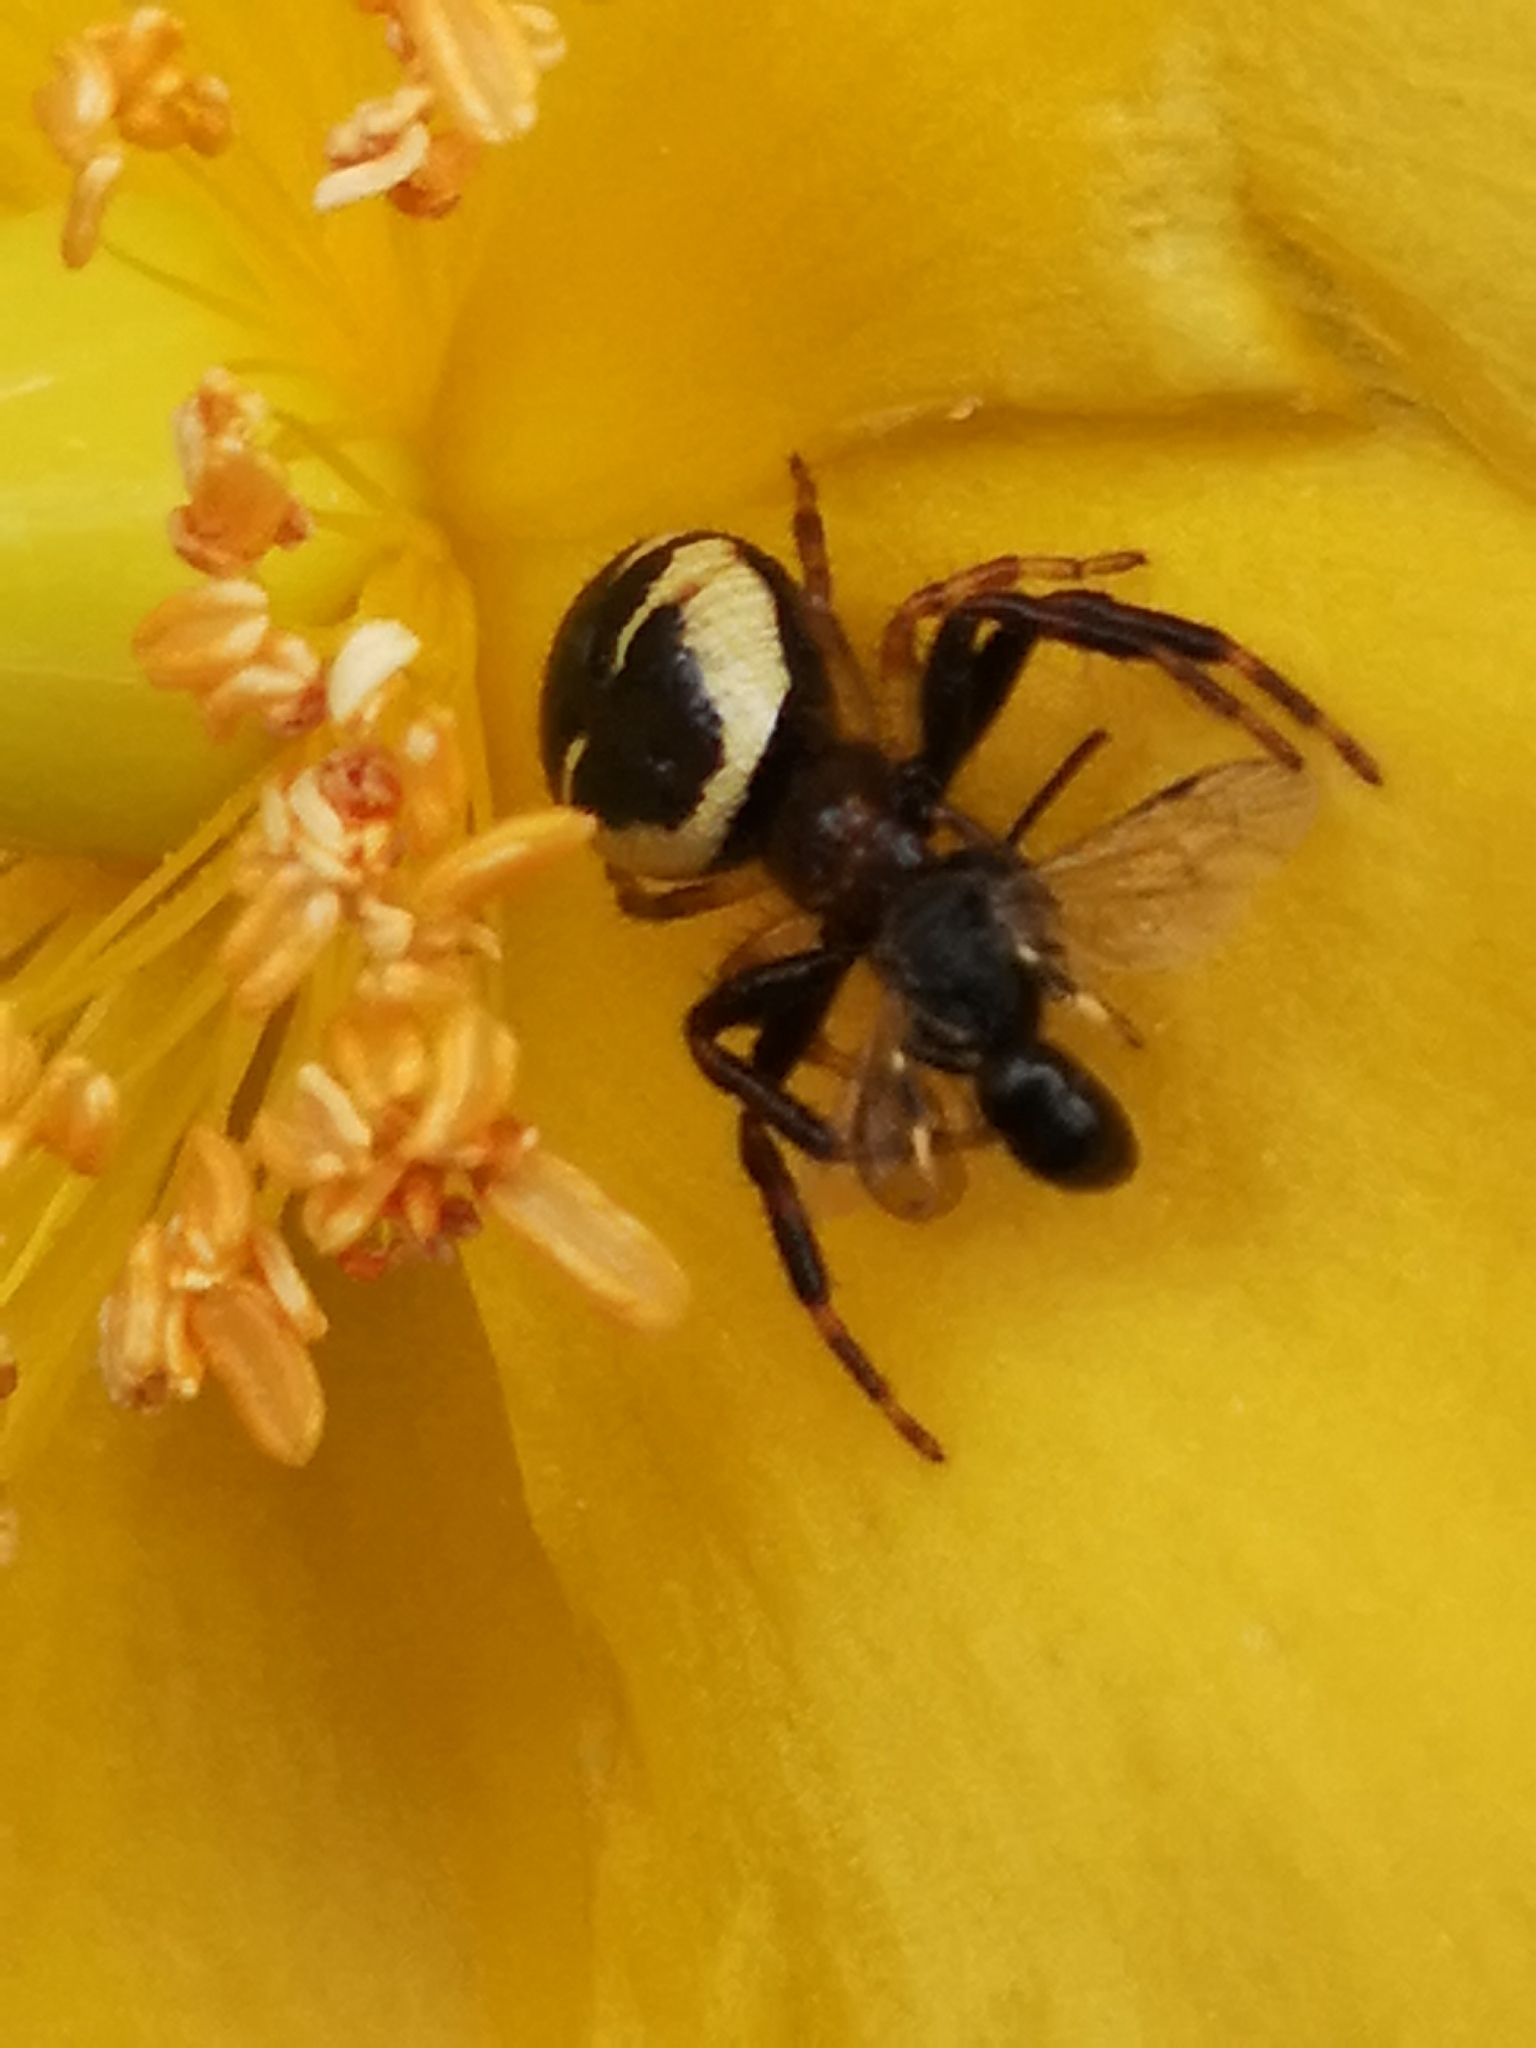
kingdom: Animalia
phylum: Arthropoda
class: Arachnida
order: Araneae
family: Thomisidae
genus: Synema
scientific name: Synema globosum
